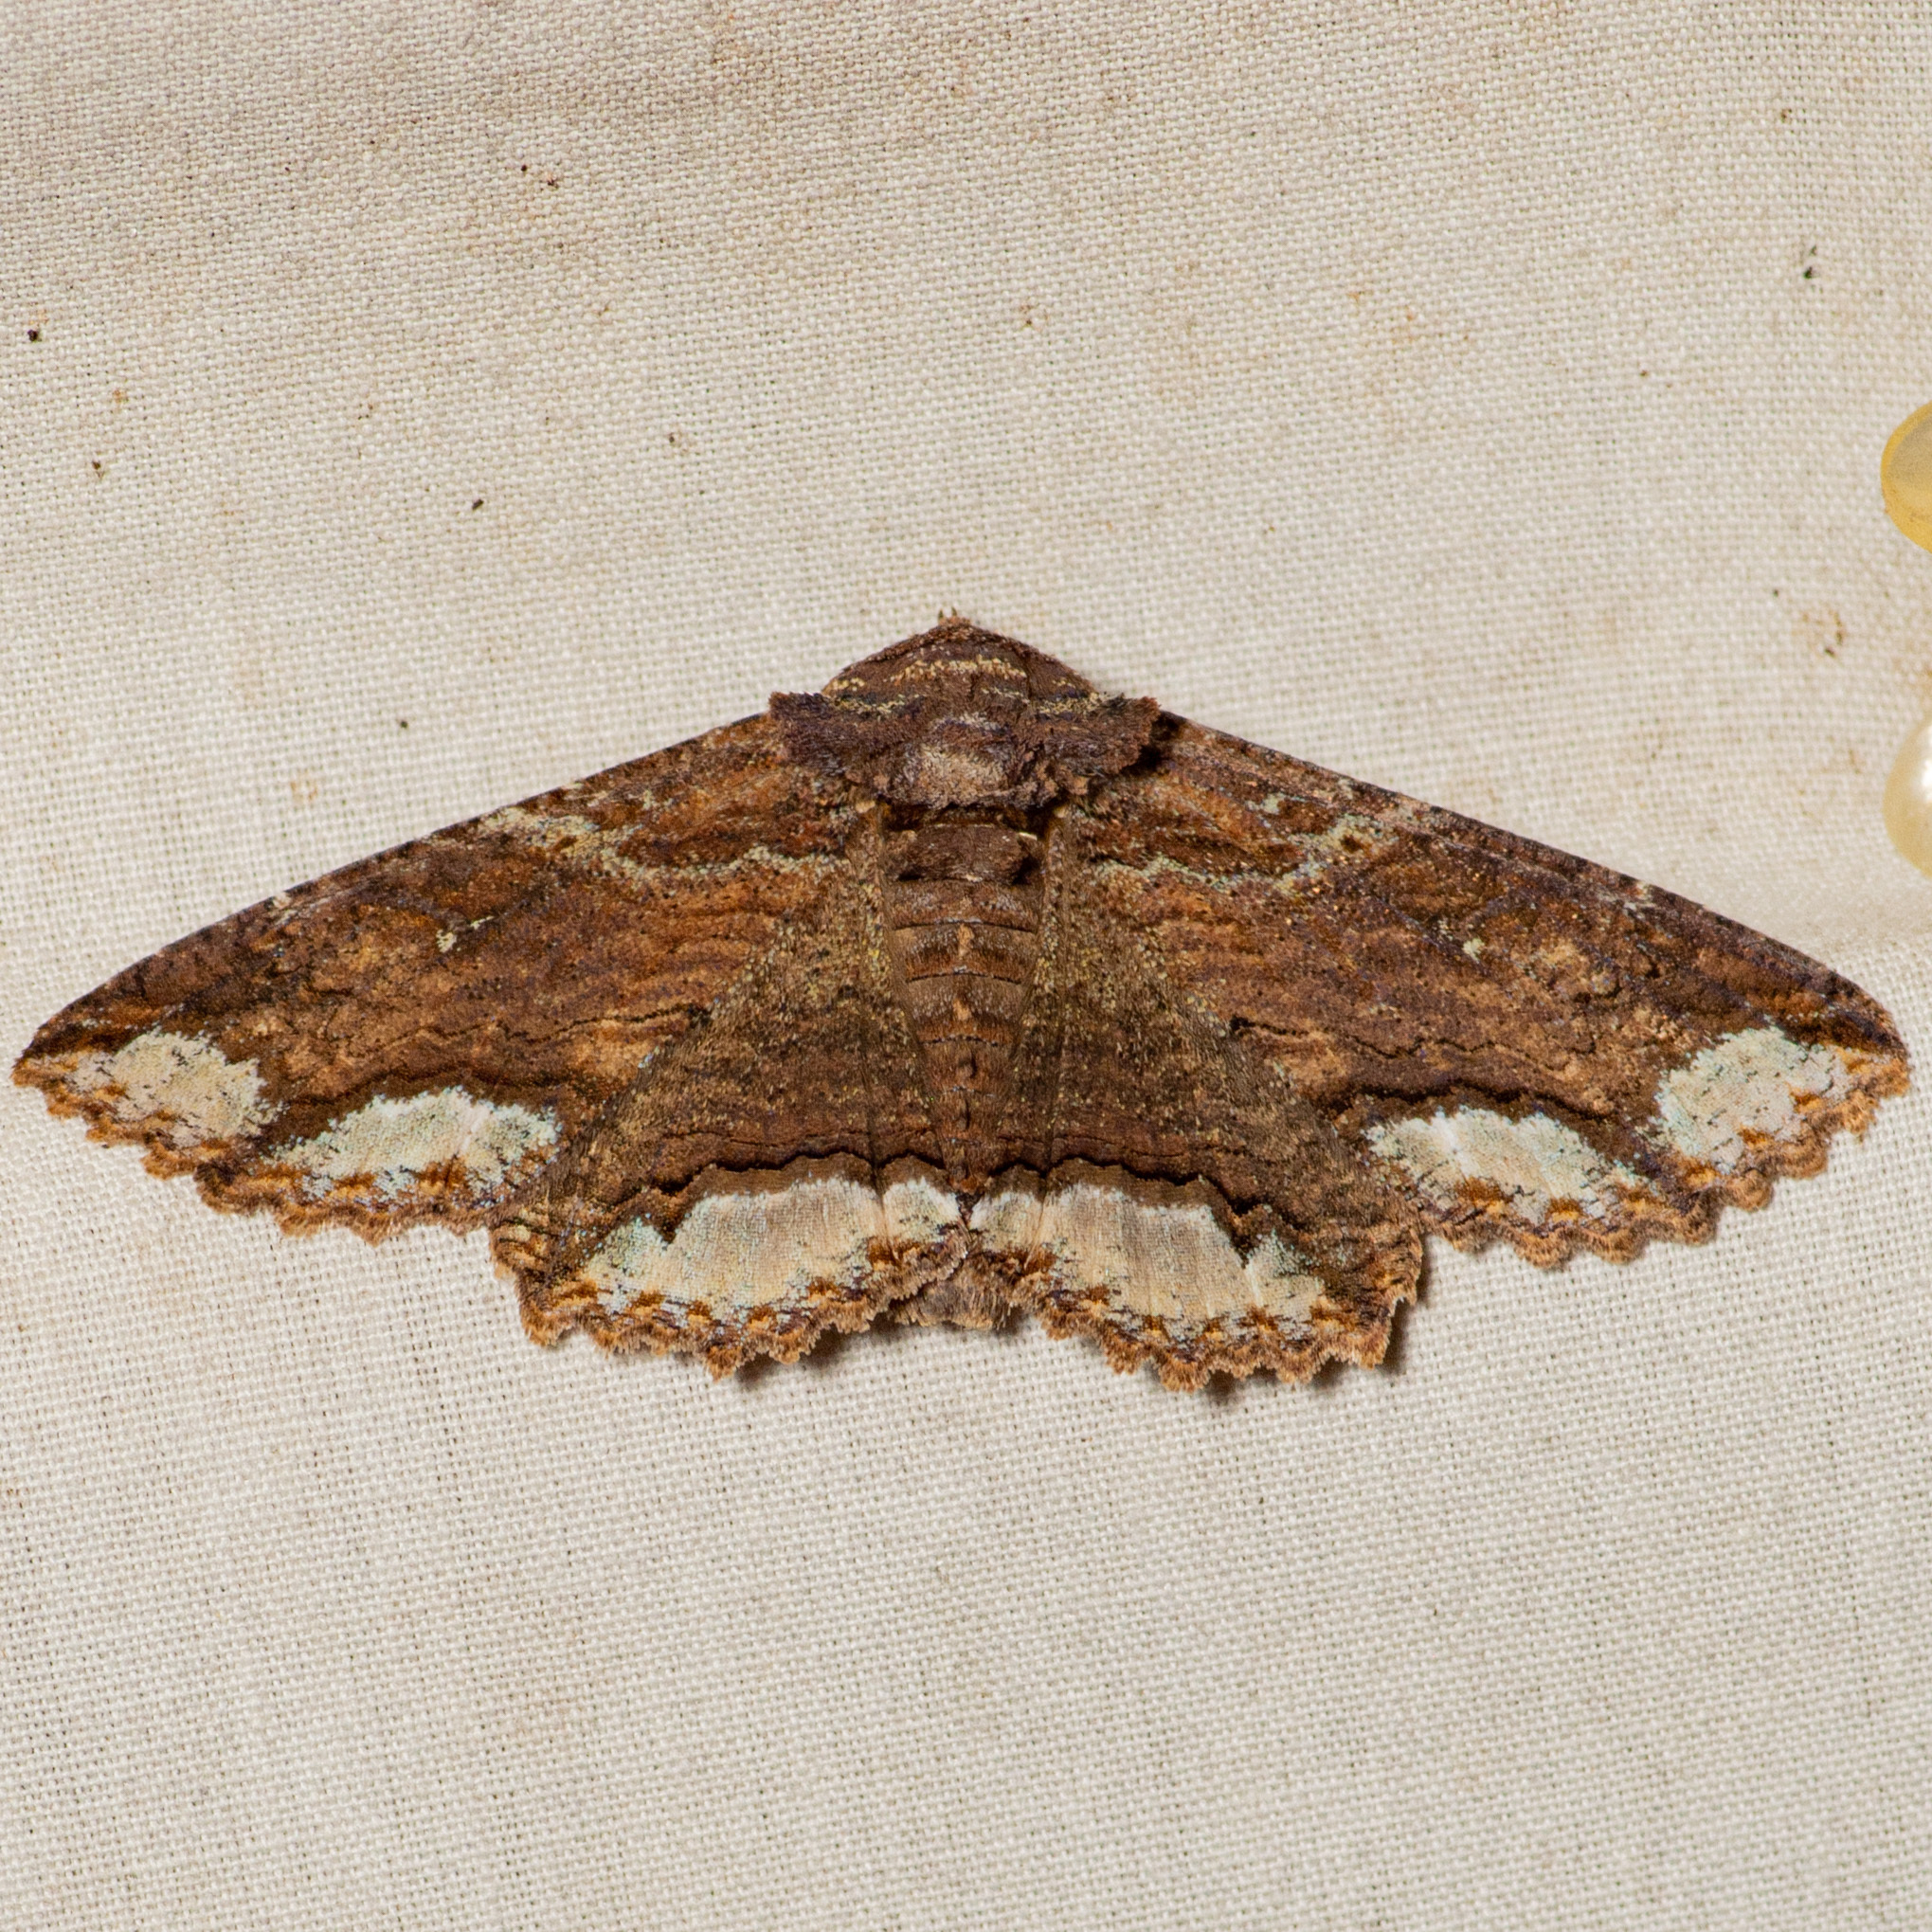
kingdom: Animalia
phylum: Arthropoda
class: Insecta
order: Lepidoptera
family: Erebidae
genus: Zale
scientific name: Zale lunata
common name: Lunate zale moth
